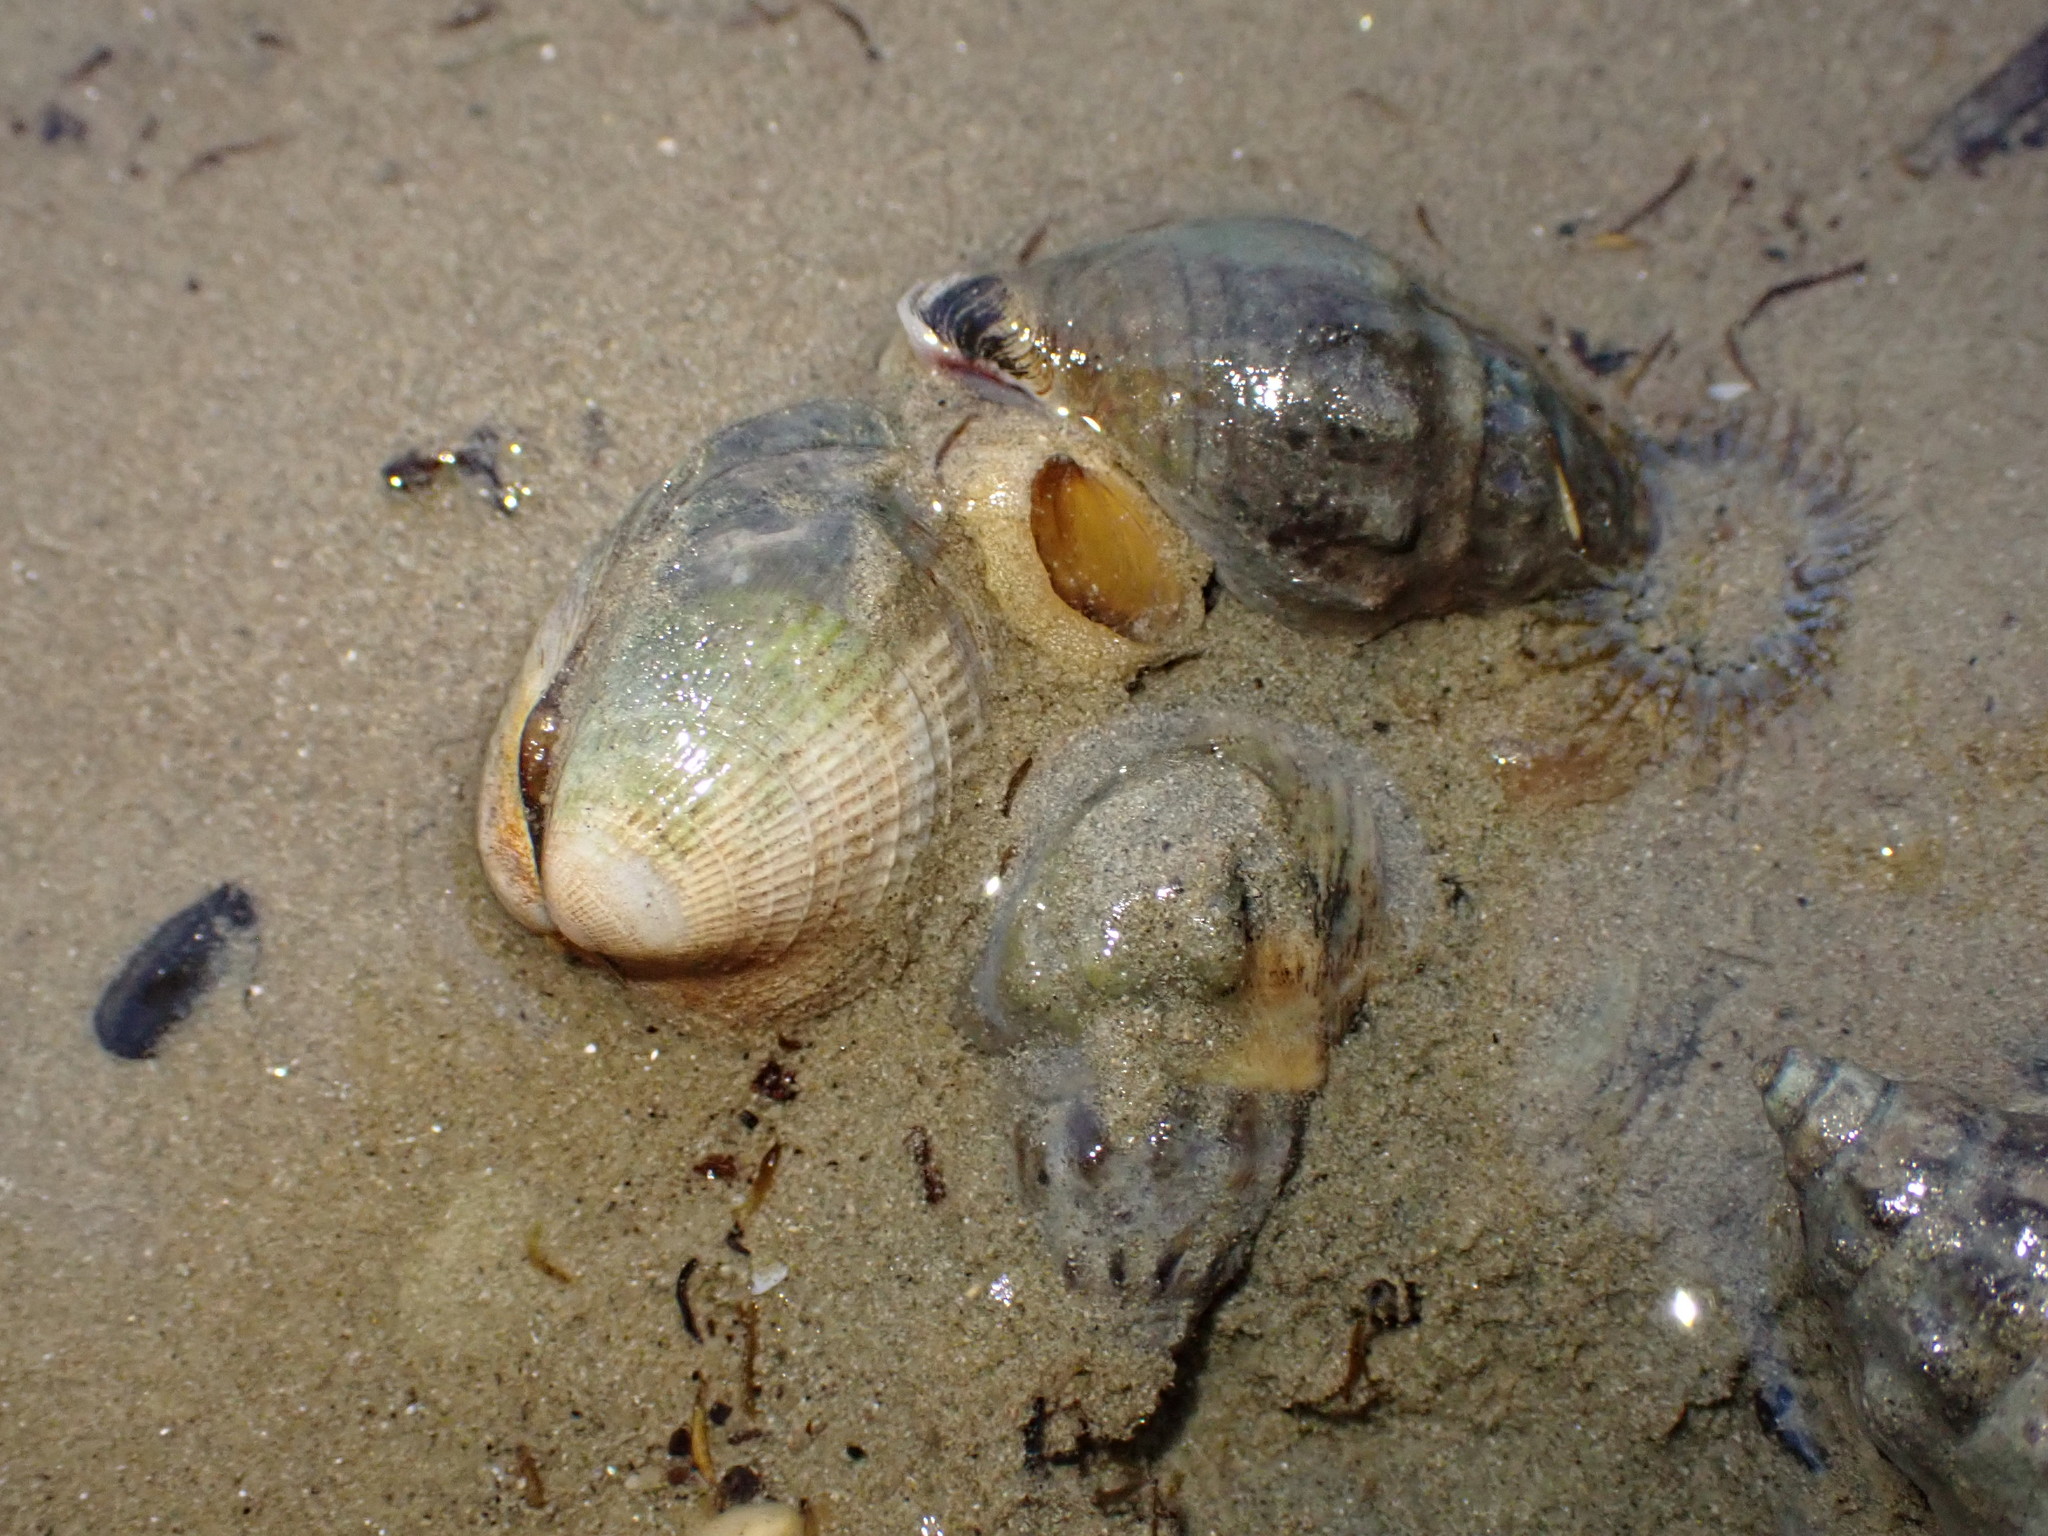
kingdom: Animalia
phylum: Mollusca
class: Bivalvia
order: Venerida
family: Veneridae
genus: Austrovenus
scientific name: Austrovenus stutchburyi
